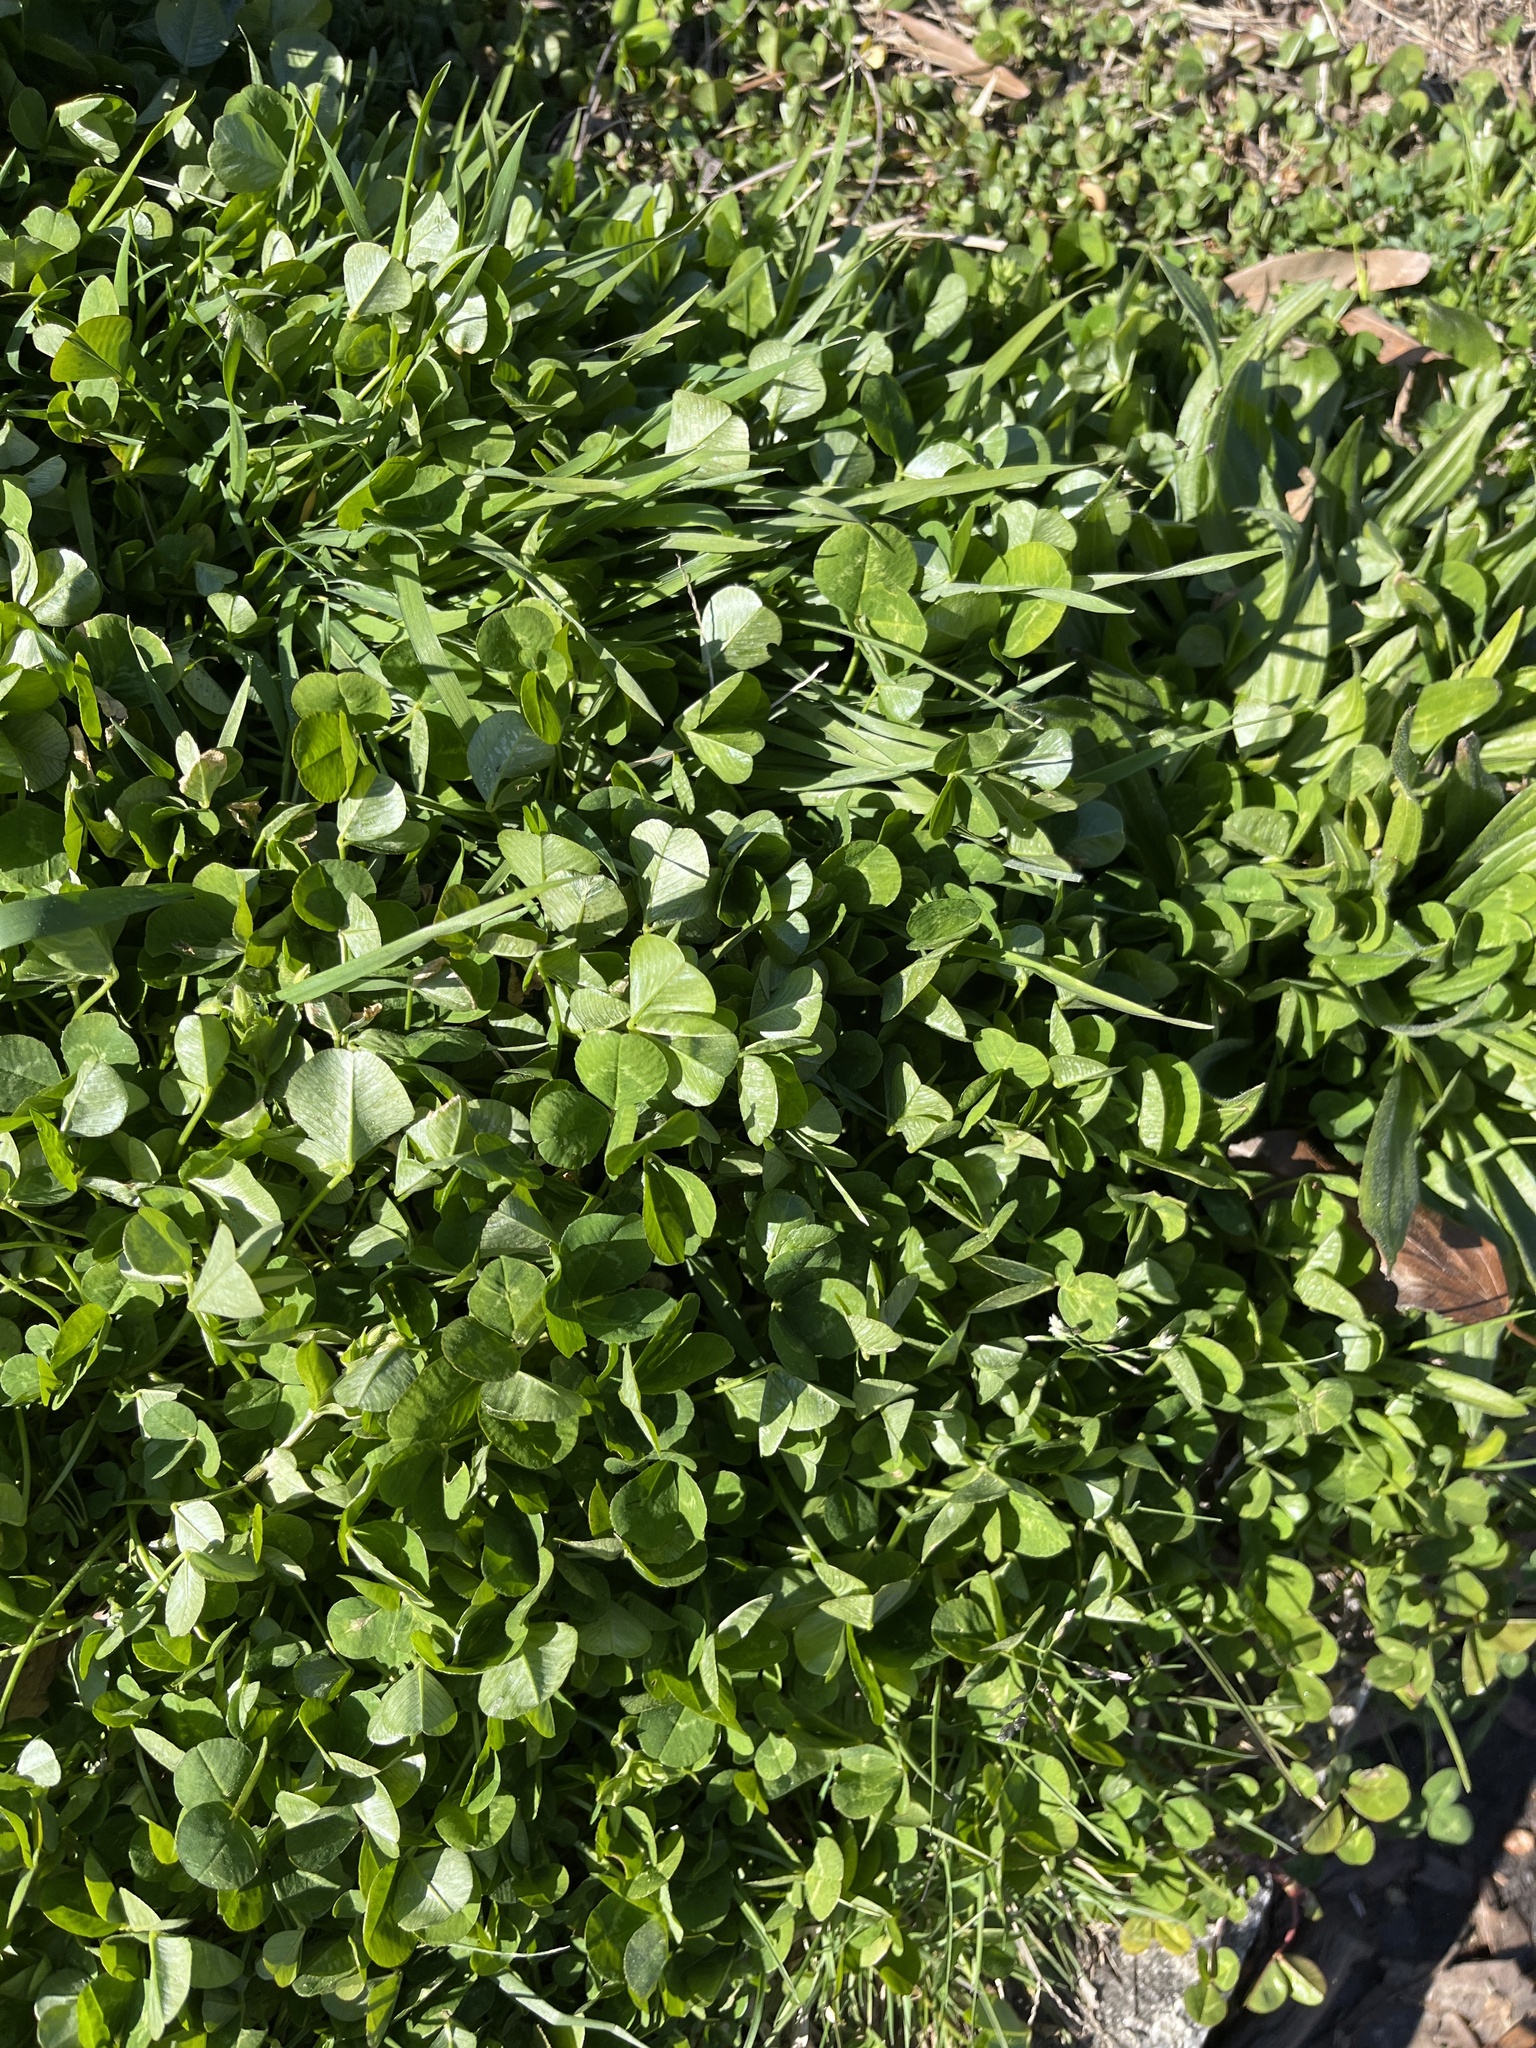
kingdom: Plantae
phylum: Tracheophyta
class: Magnoliopsida
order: Fabales
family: Fabaceae
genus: Trifolium
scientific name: Trifolium repens
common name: White clover
